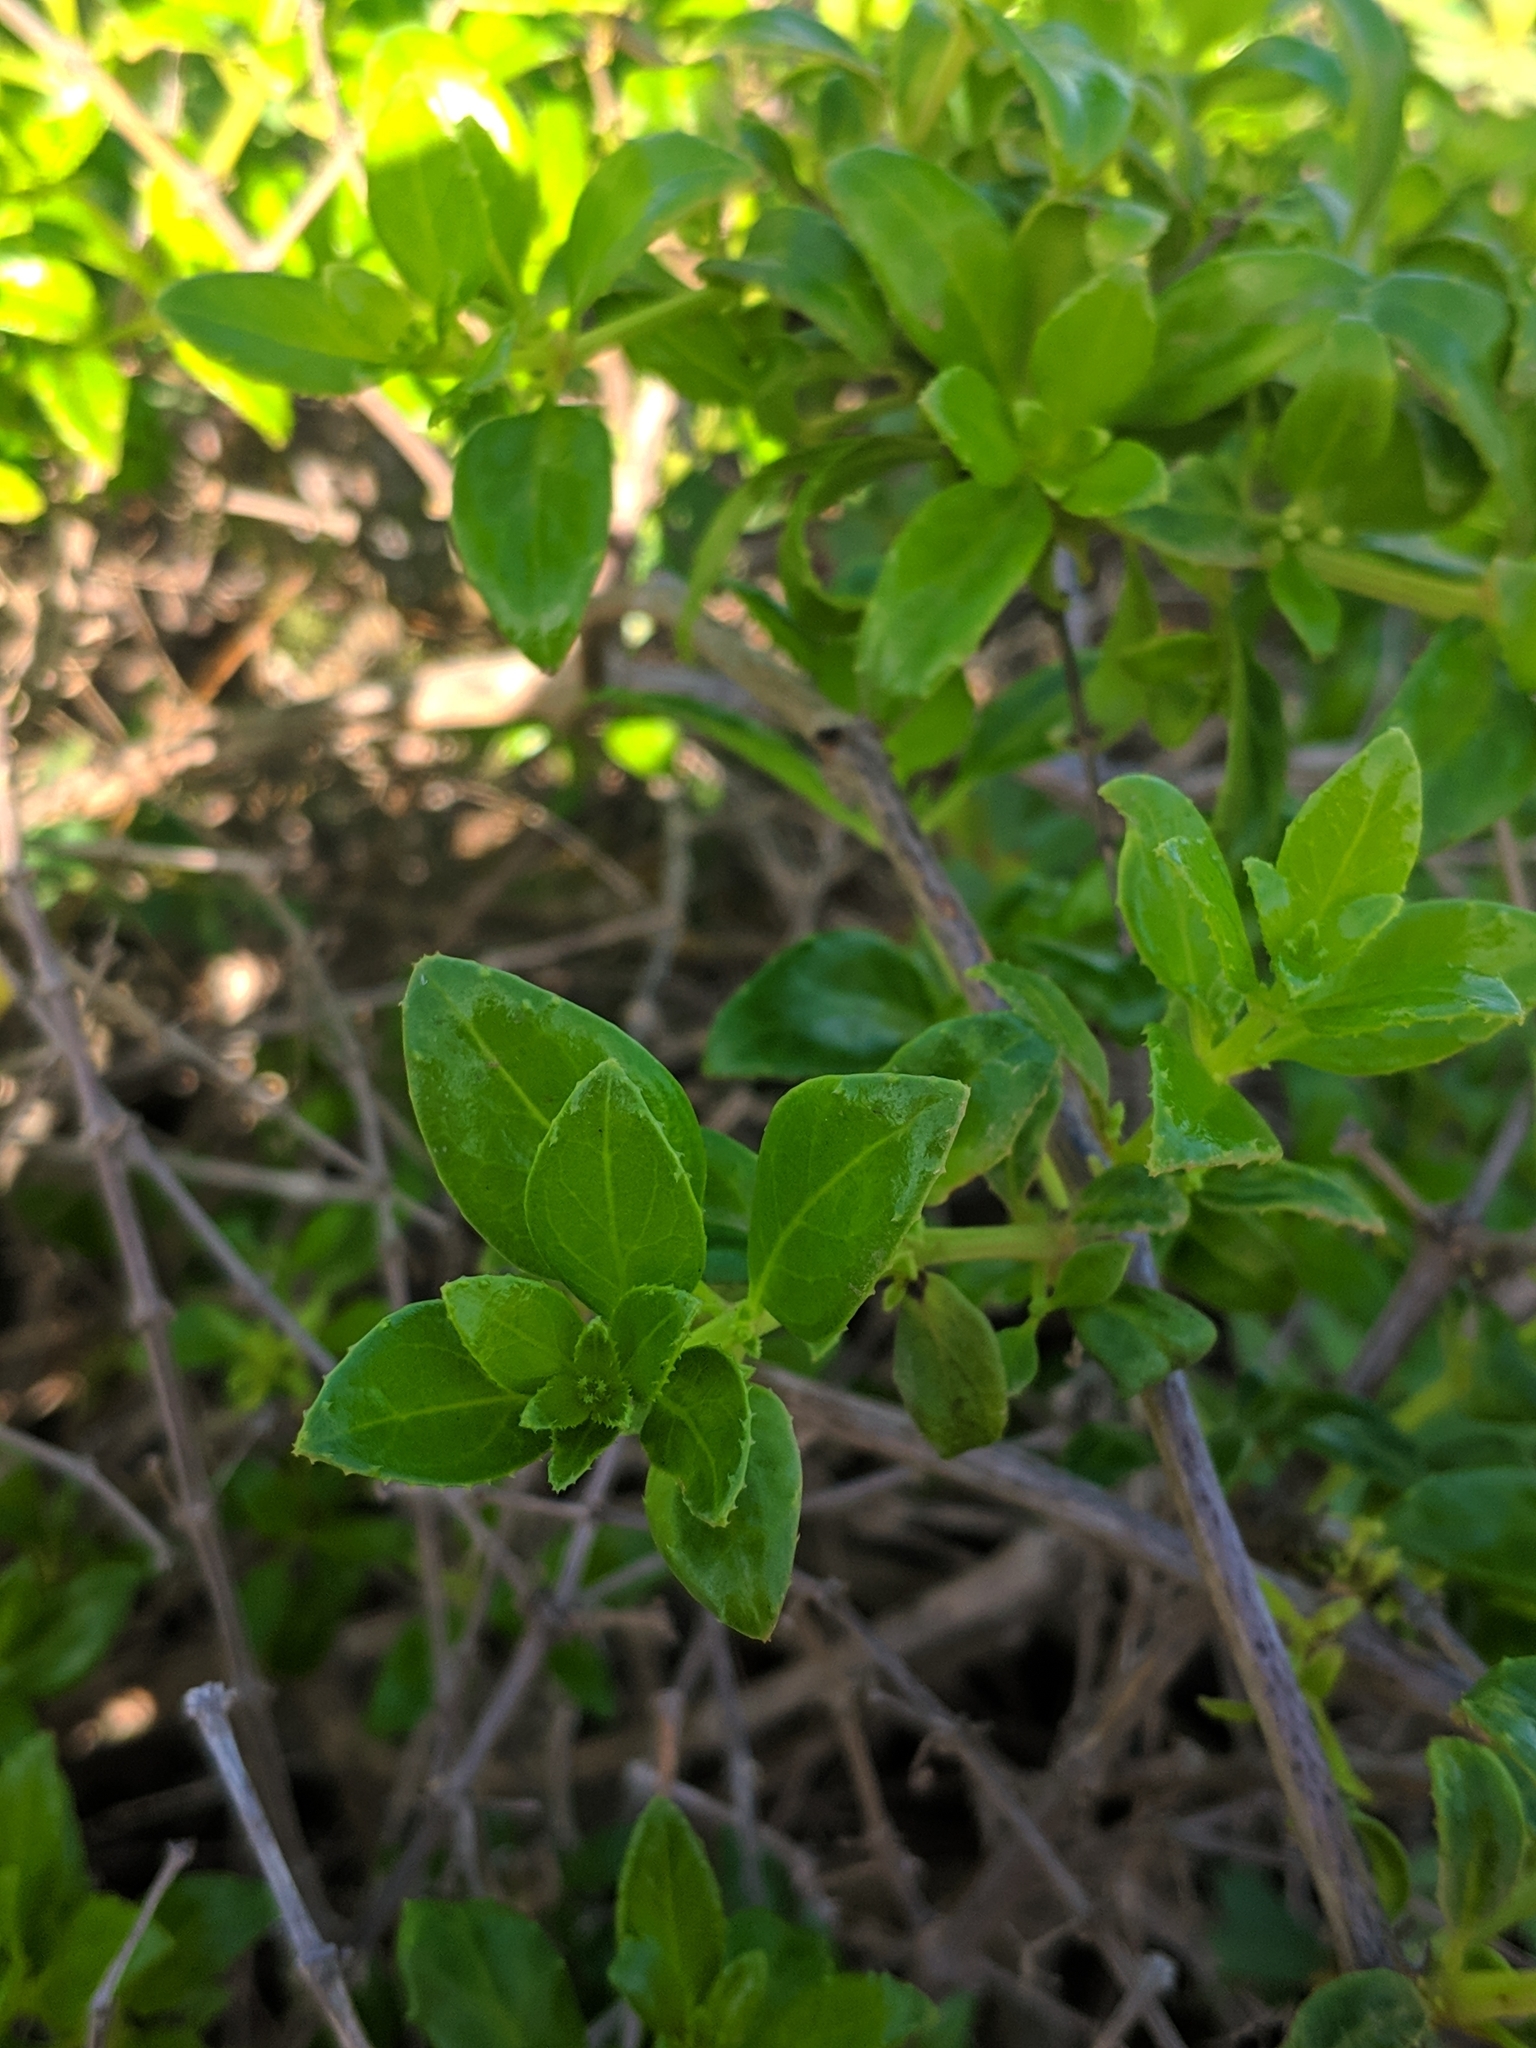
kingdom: Plantae
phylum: Tracheophyta
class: Magnoliopsida
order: Gentianales
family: Rubiaceae
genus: Rubia
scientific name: Rubia fruticosa
